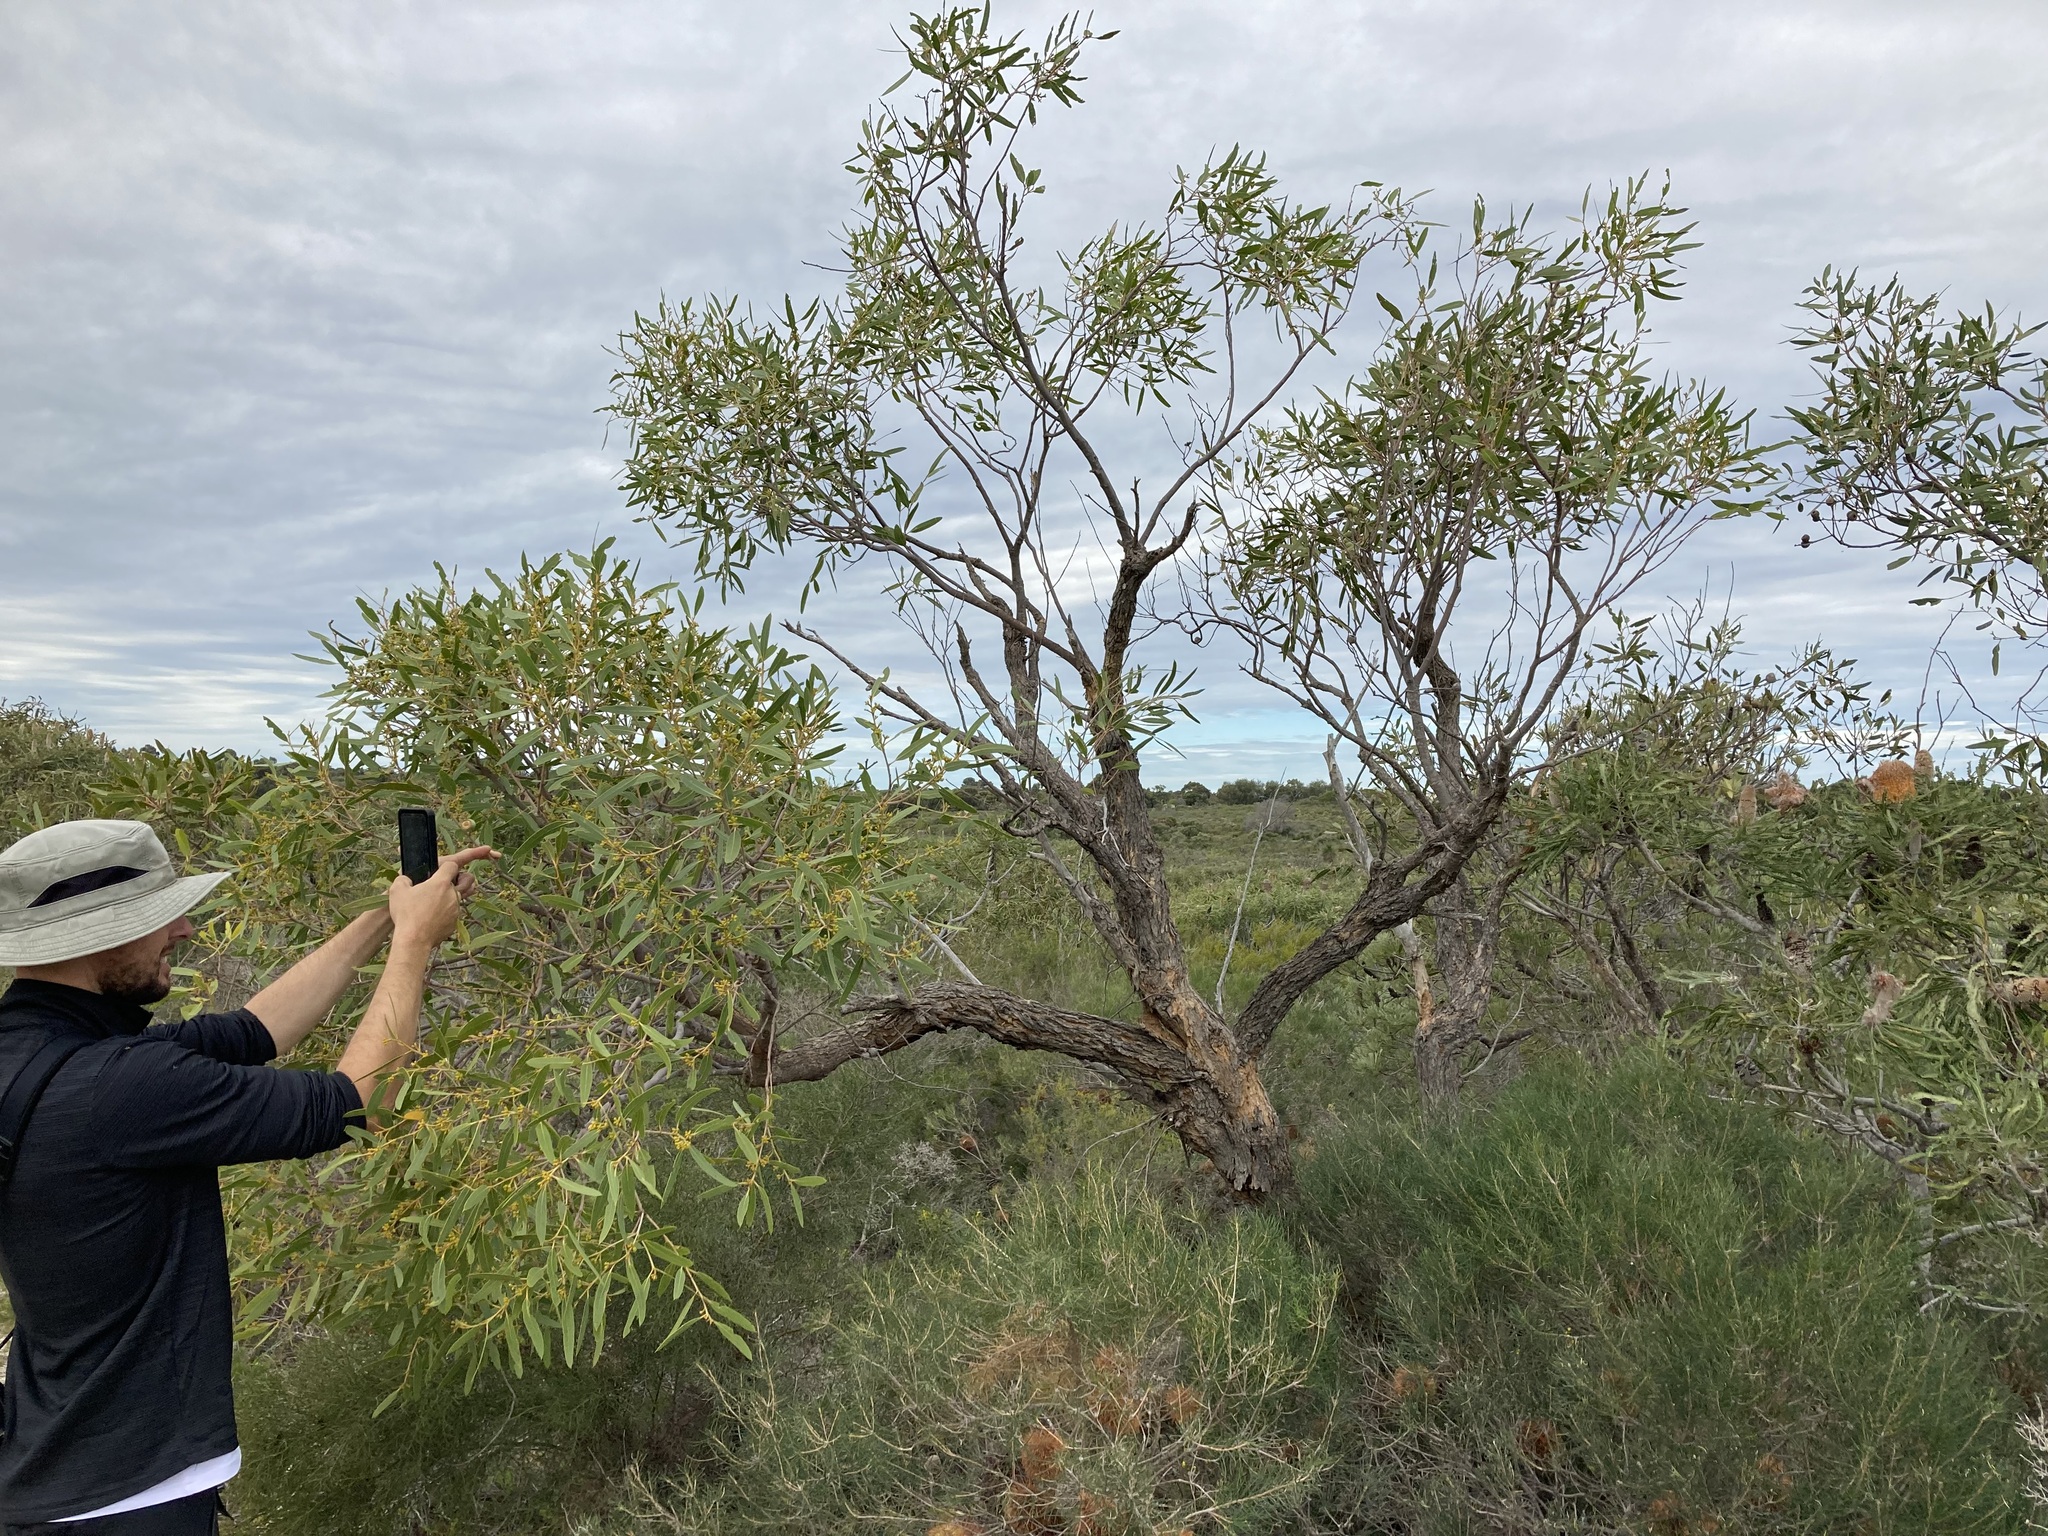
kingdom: Plantae
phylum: Tracheophyta
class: Magnoliopsida
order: Myrtales
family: Myrtaceae
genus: Eucalyptus
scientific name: Eucalyptus todtiana
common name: Coastal blackbutt
